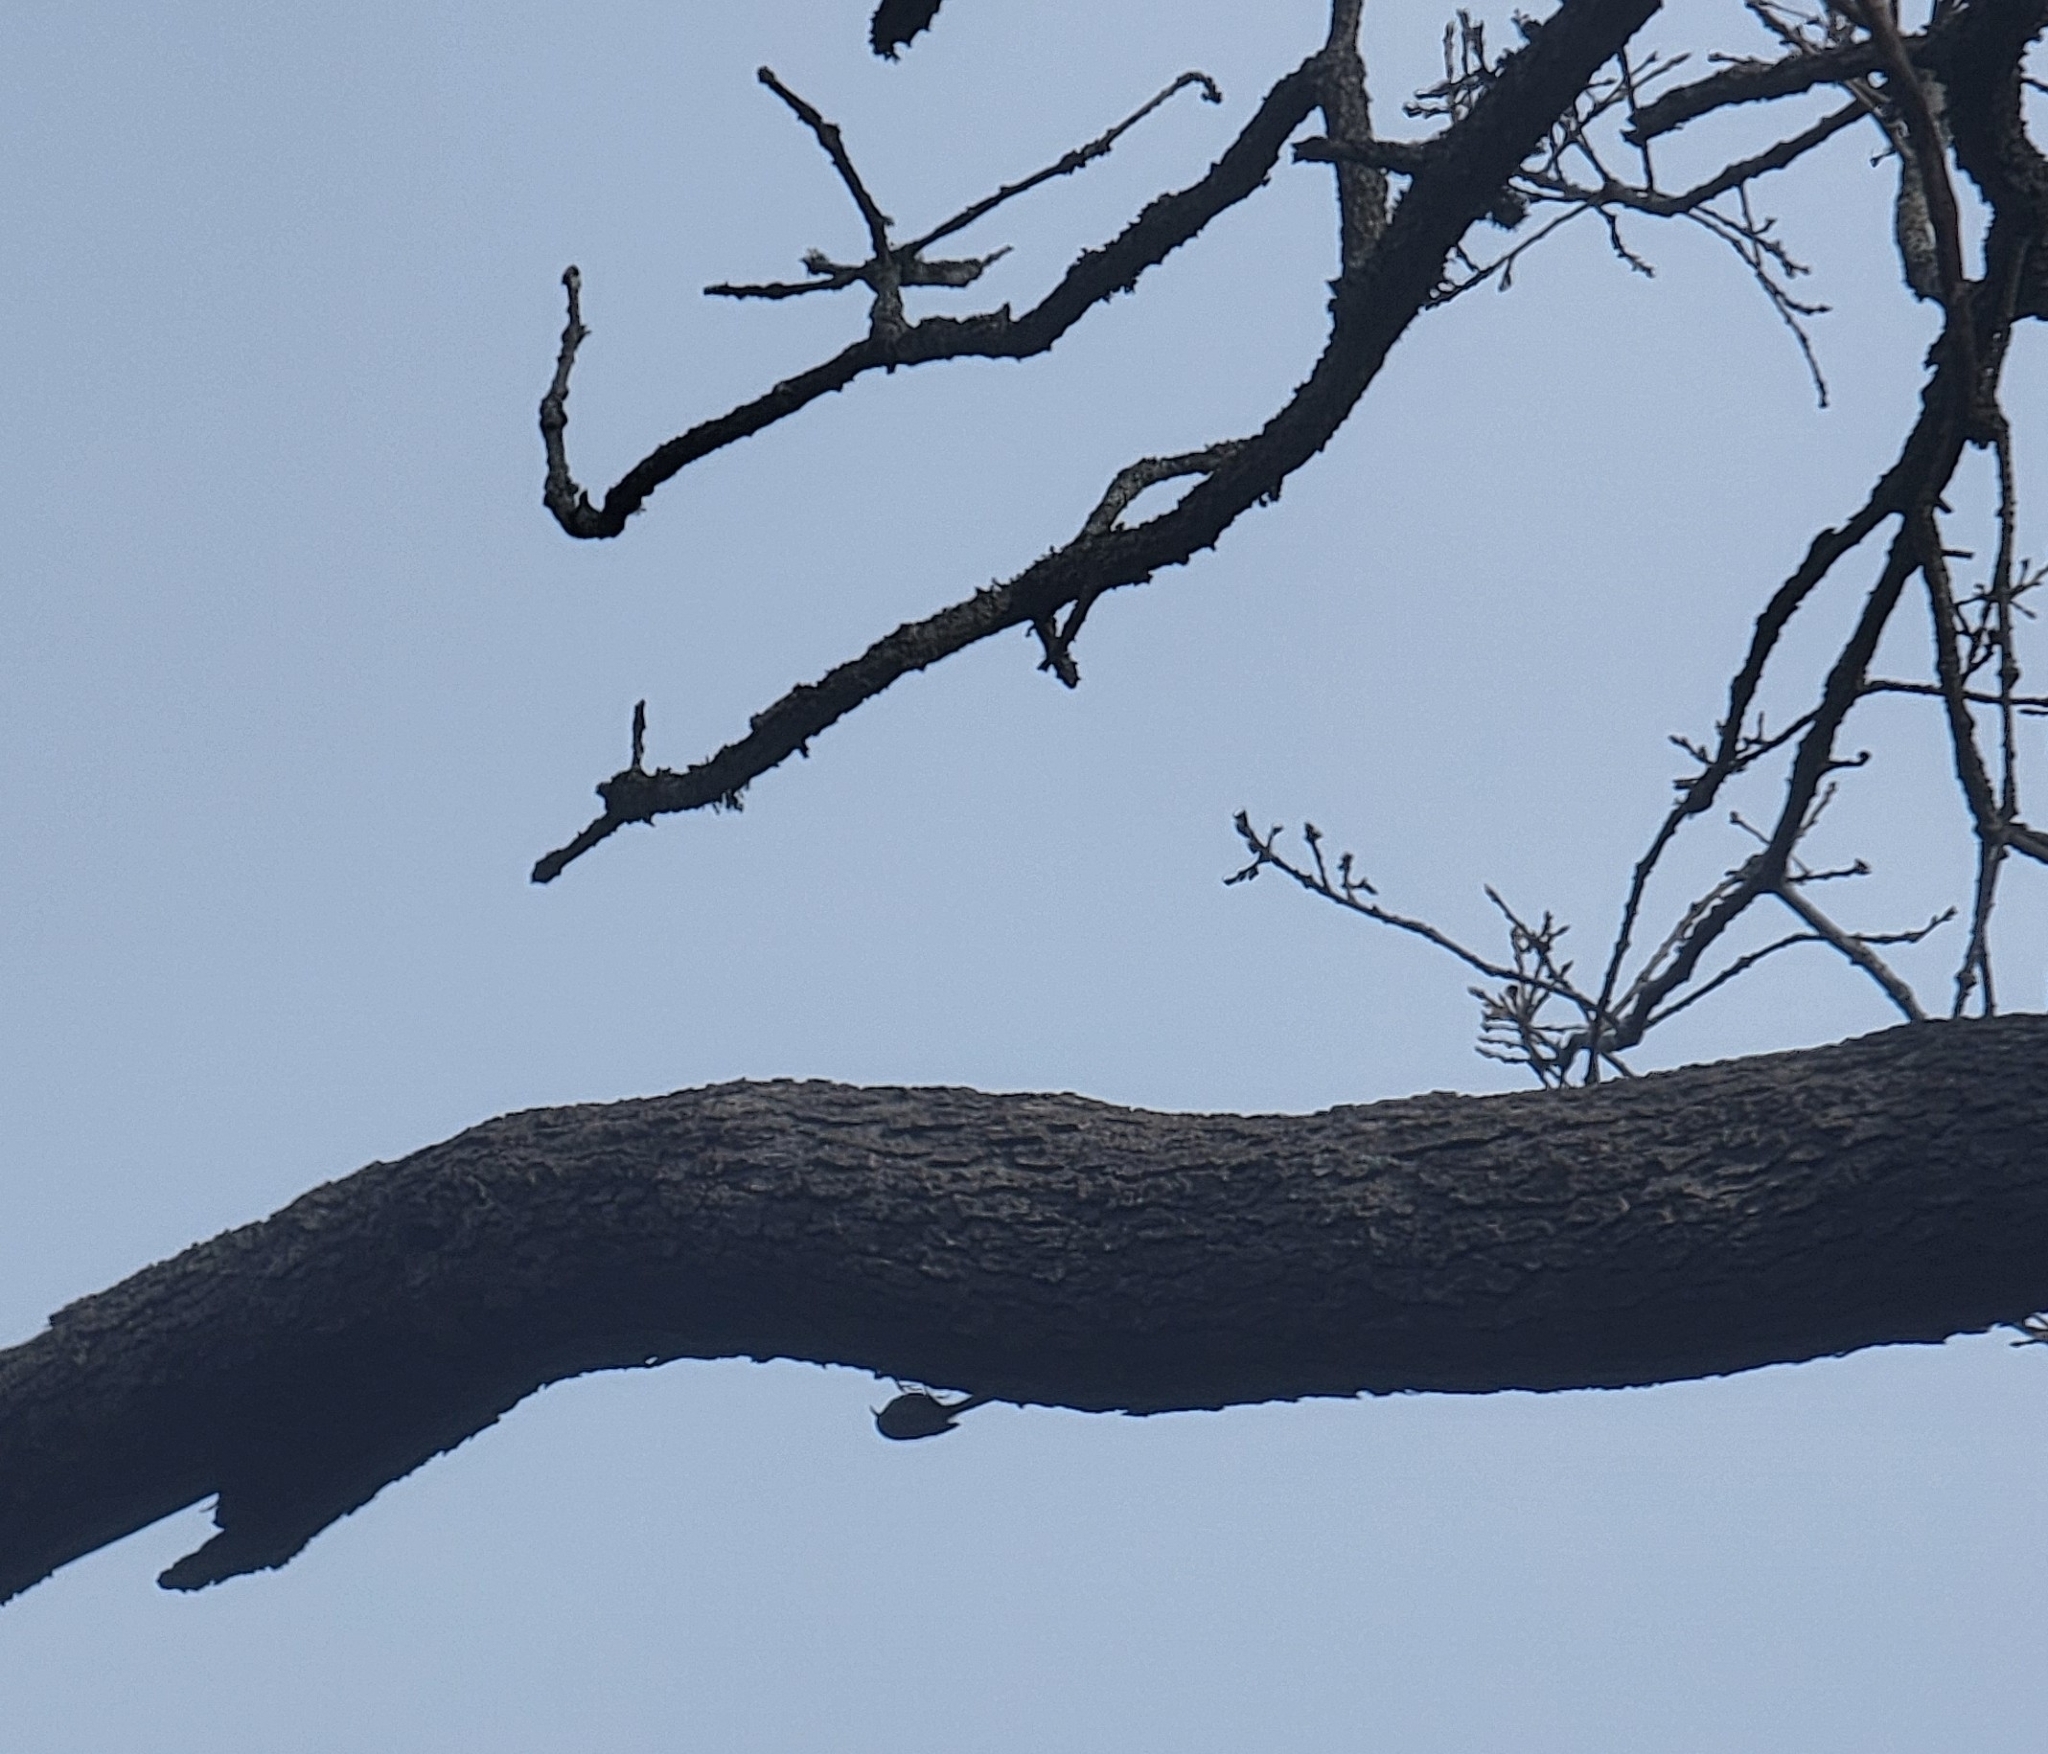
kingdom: Animalia
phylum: Chordata
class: Aves
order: Passeriformes
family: Certhiidae
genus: Certhia
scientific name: Certhia americana
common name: Brown creeper
